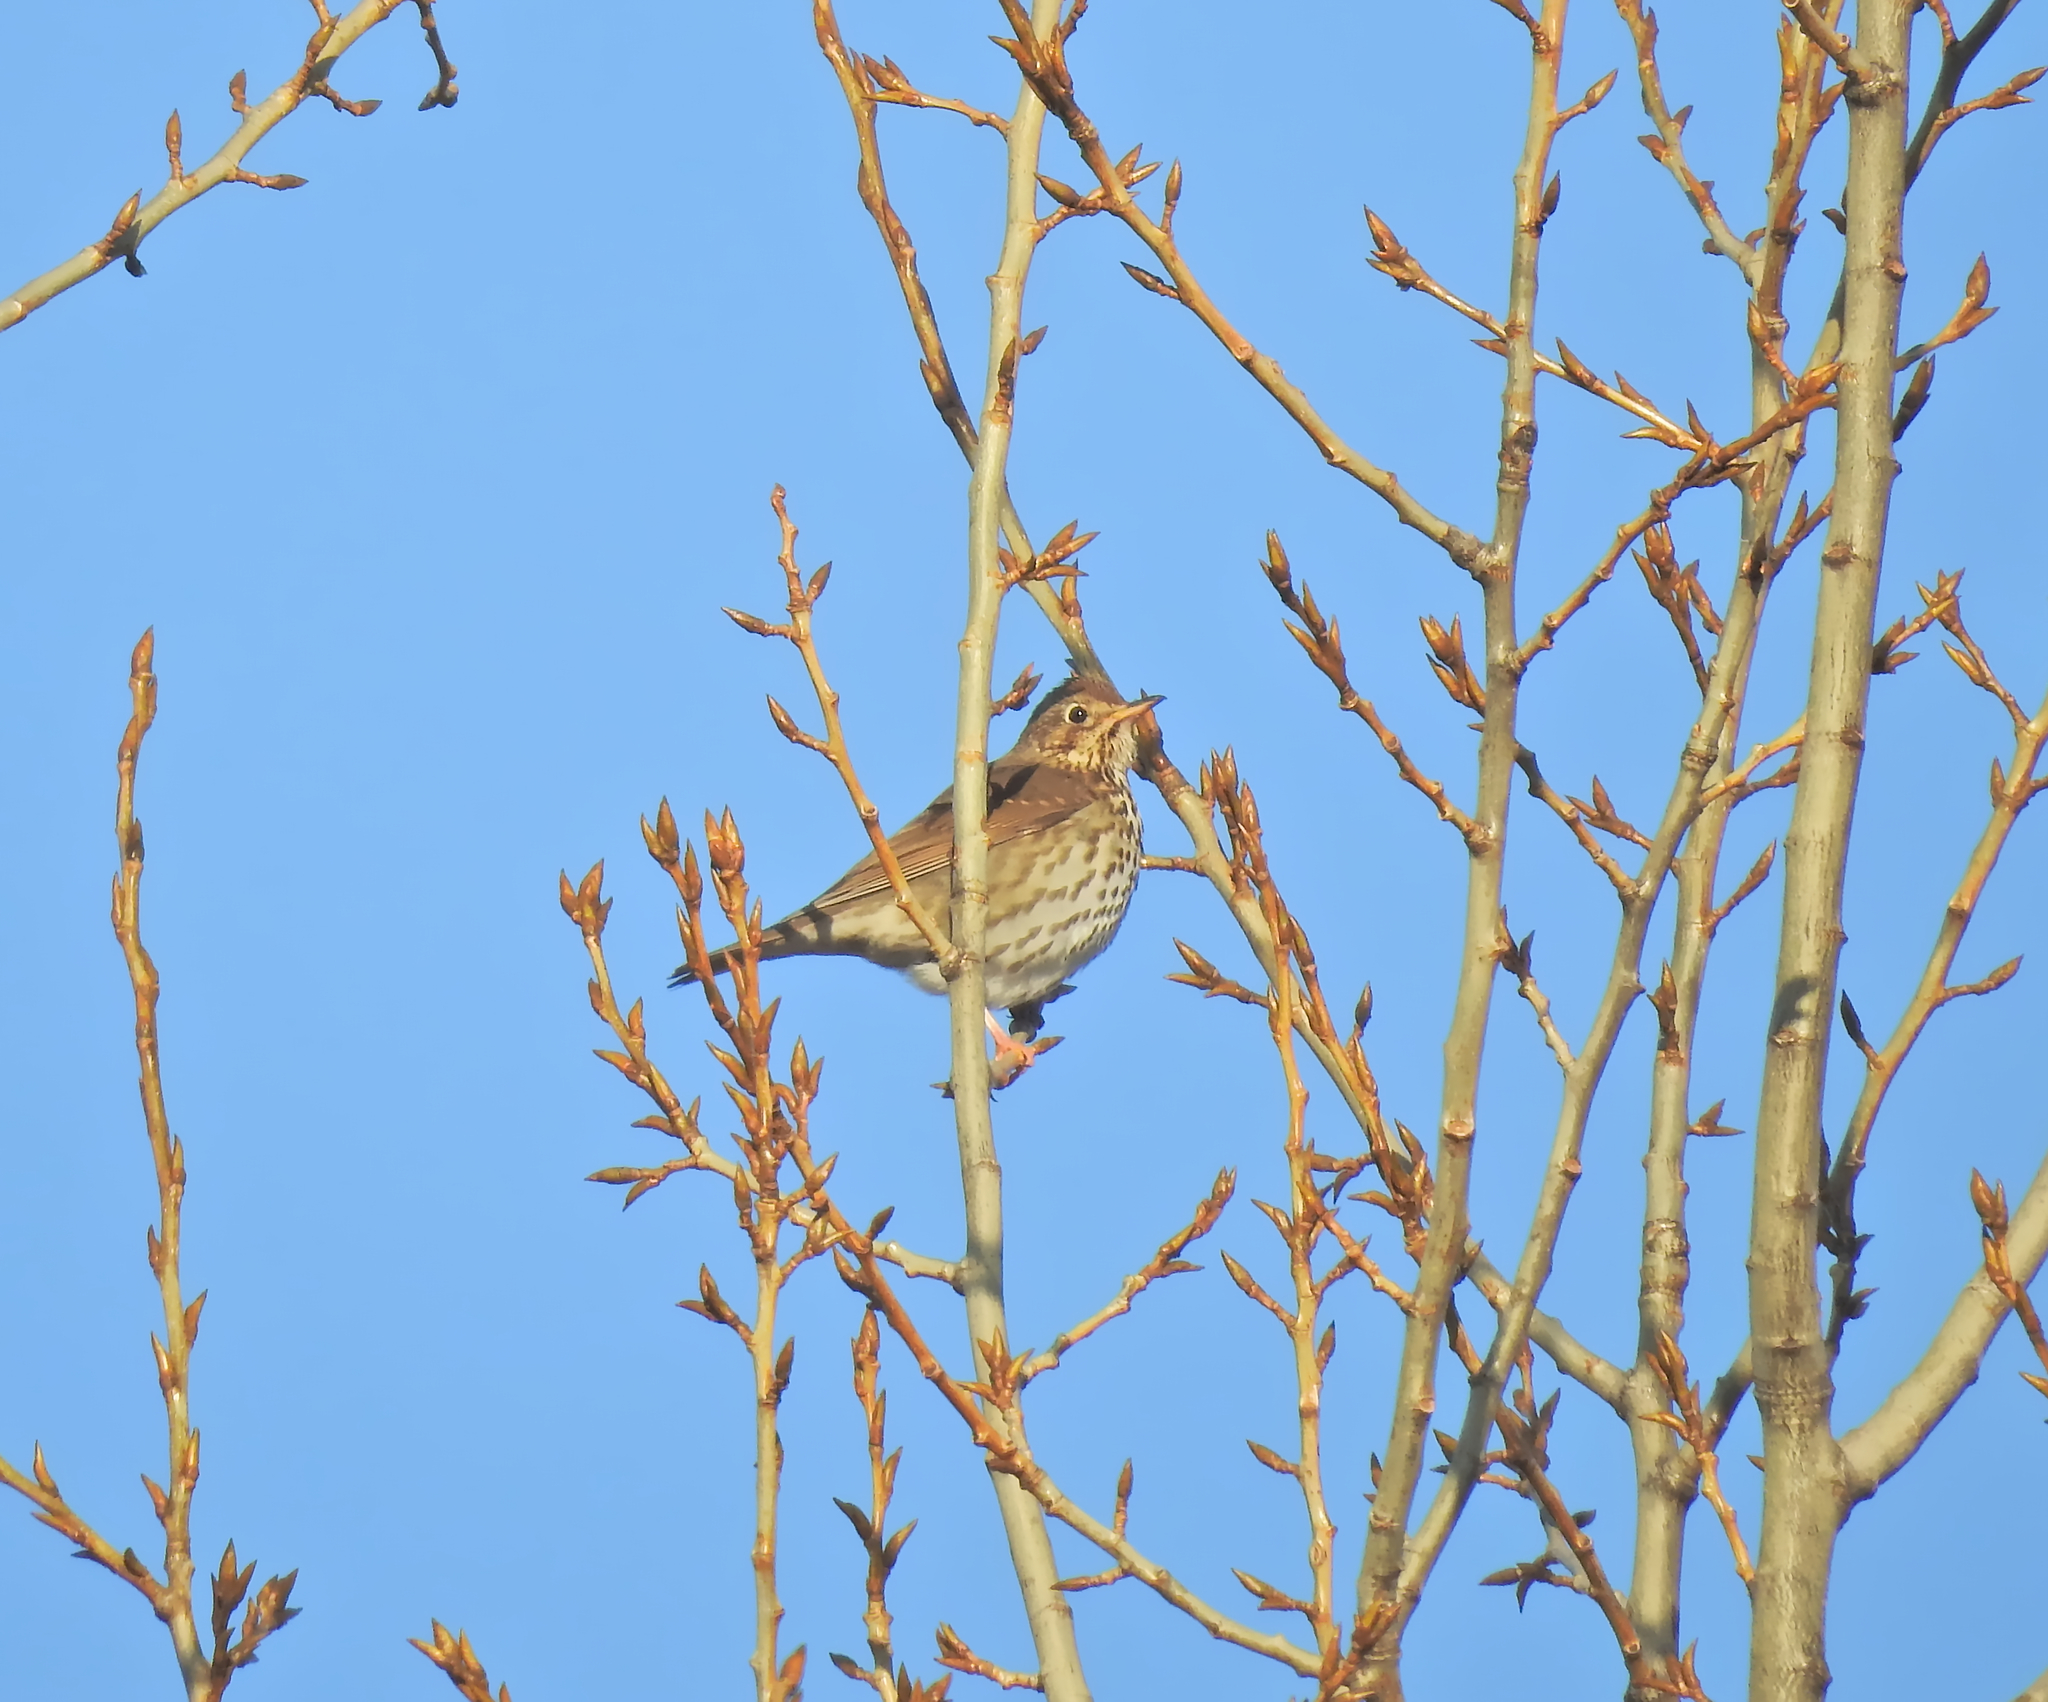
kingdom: Animalia
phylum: Chordata
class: Aves
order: Passeriformes
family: Turdidae
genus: Turdus
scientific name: Turdus philomelos
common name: Song thrush
